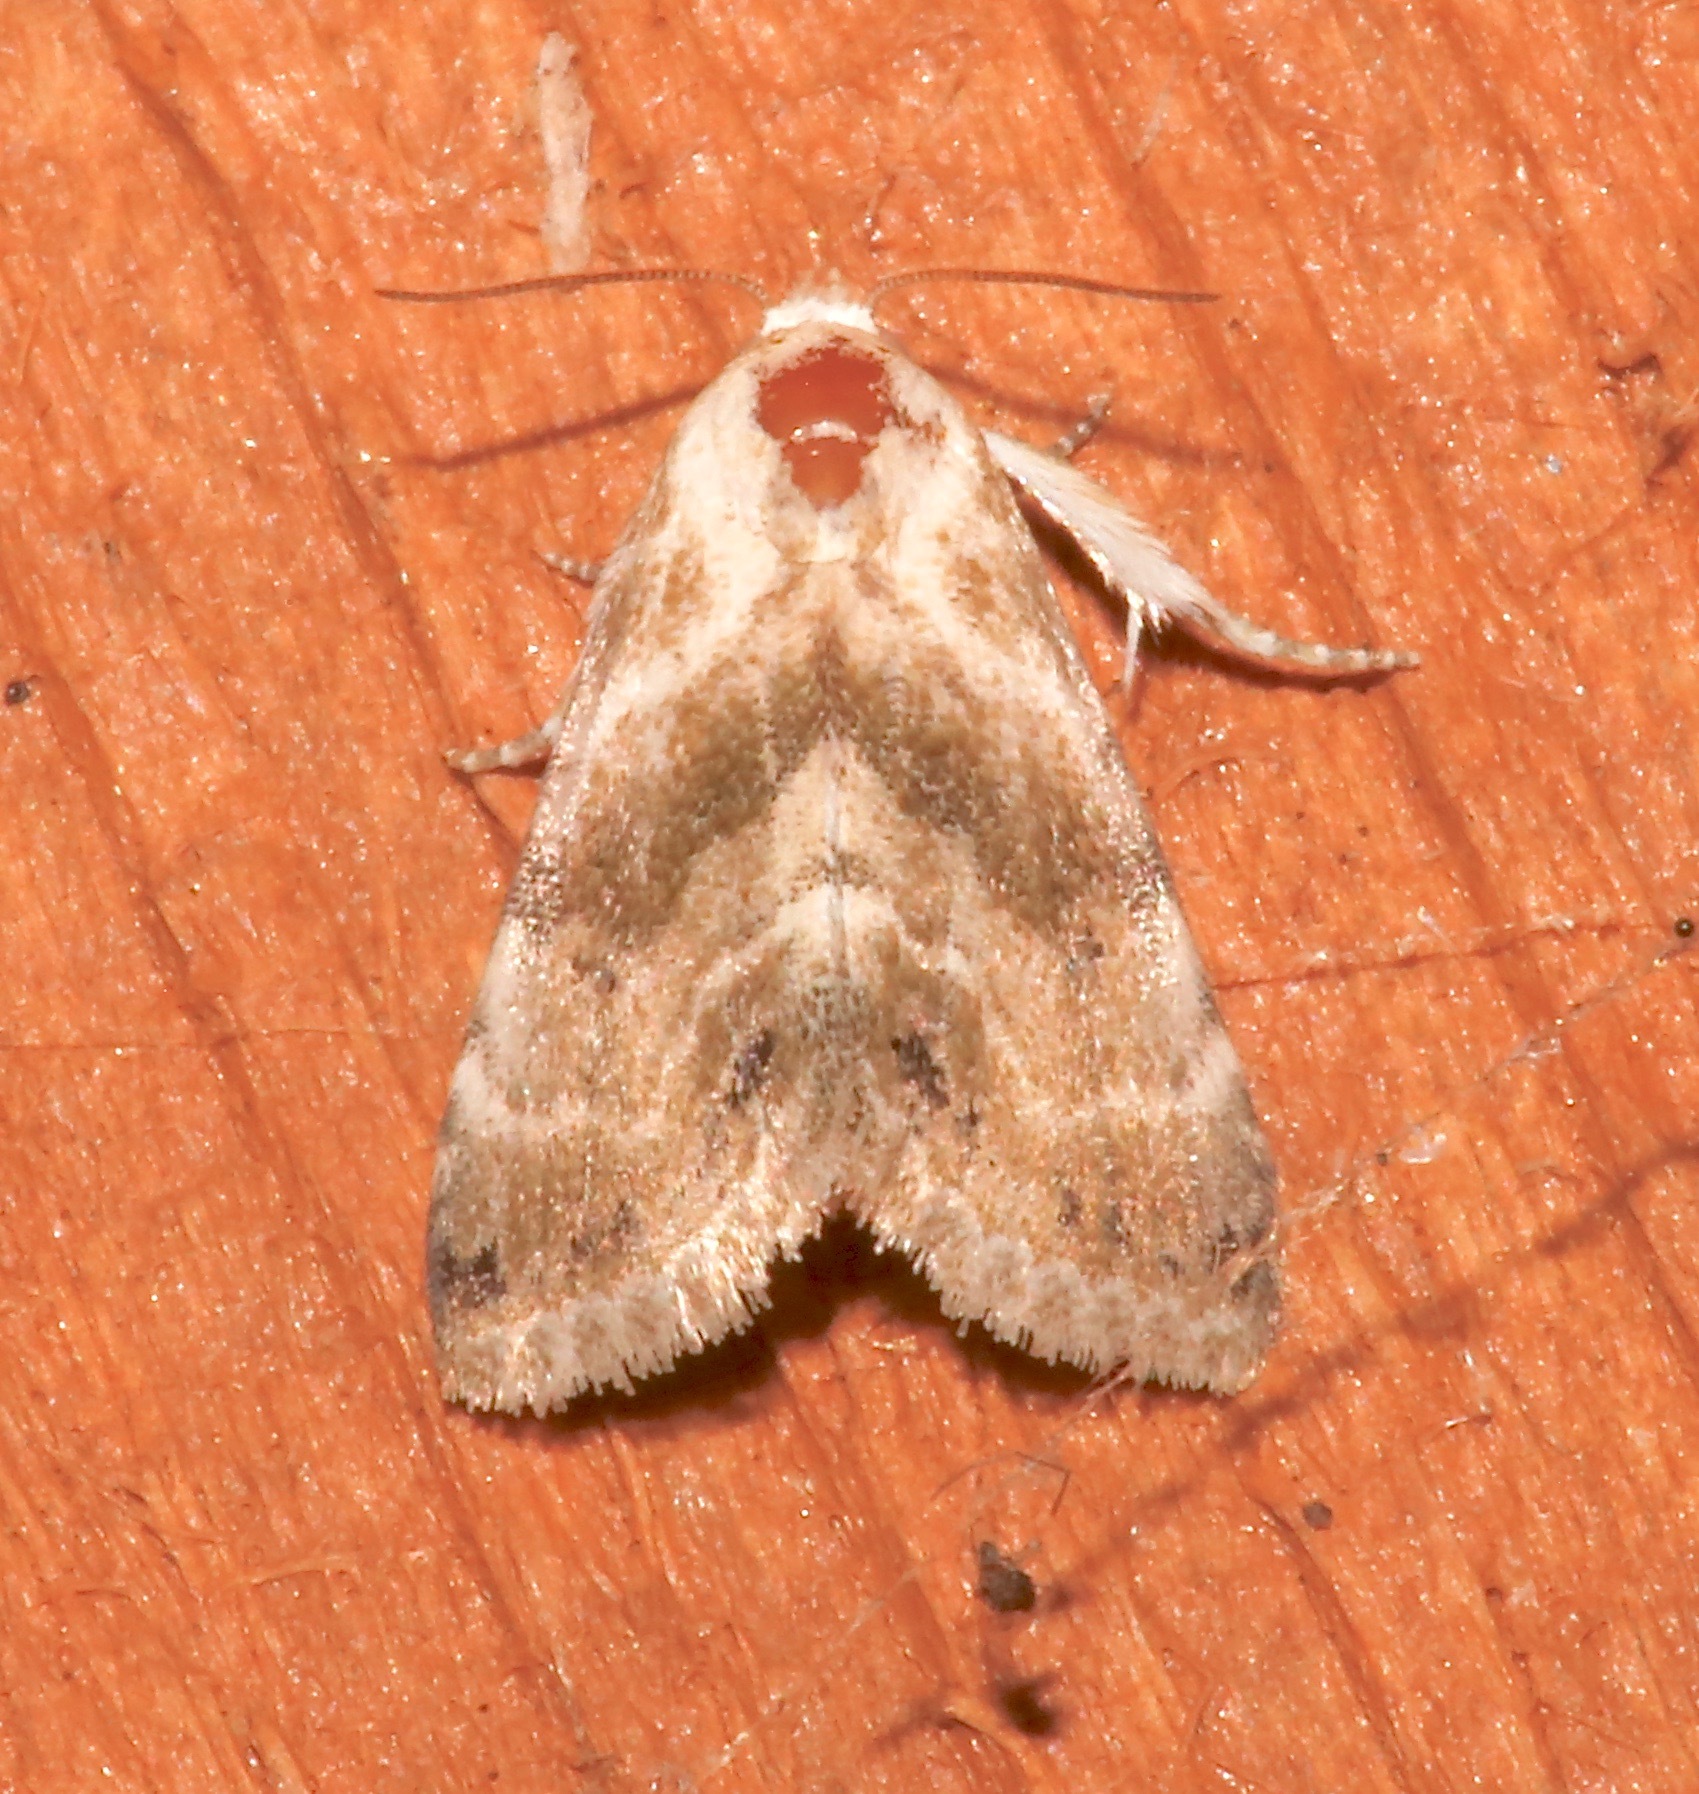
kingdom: Animalia
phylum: Arthropoda
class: Insecta
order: Lepidoptera
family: Noctuidae
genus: Eublemma
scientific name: Eublemma minima
